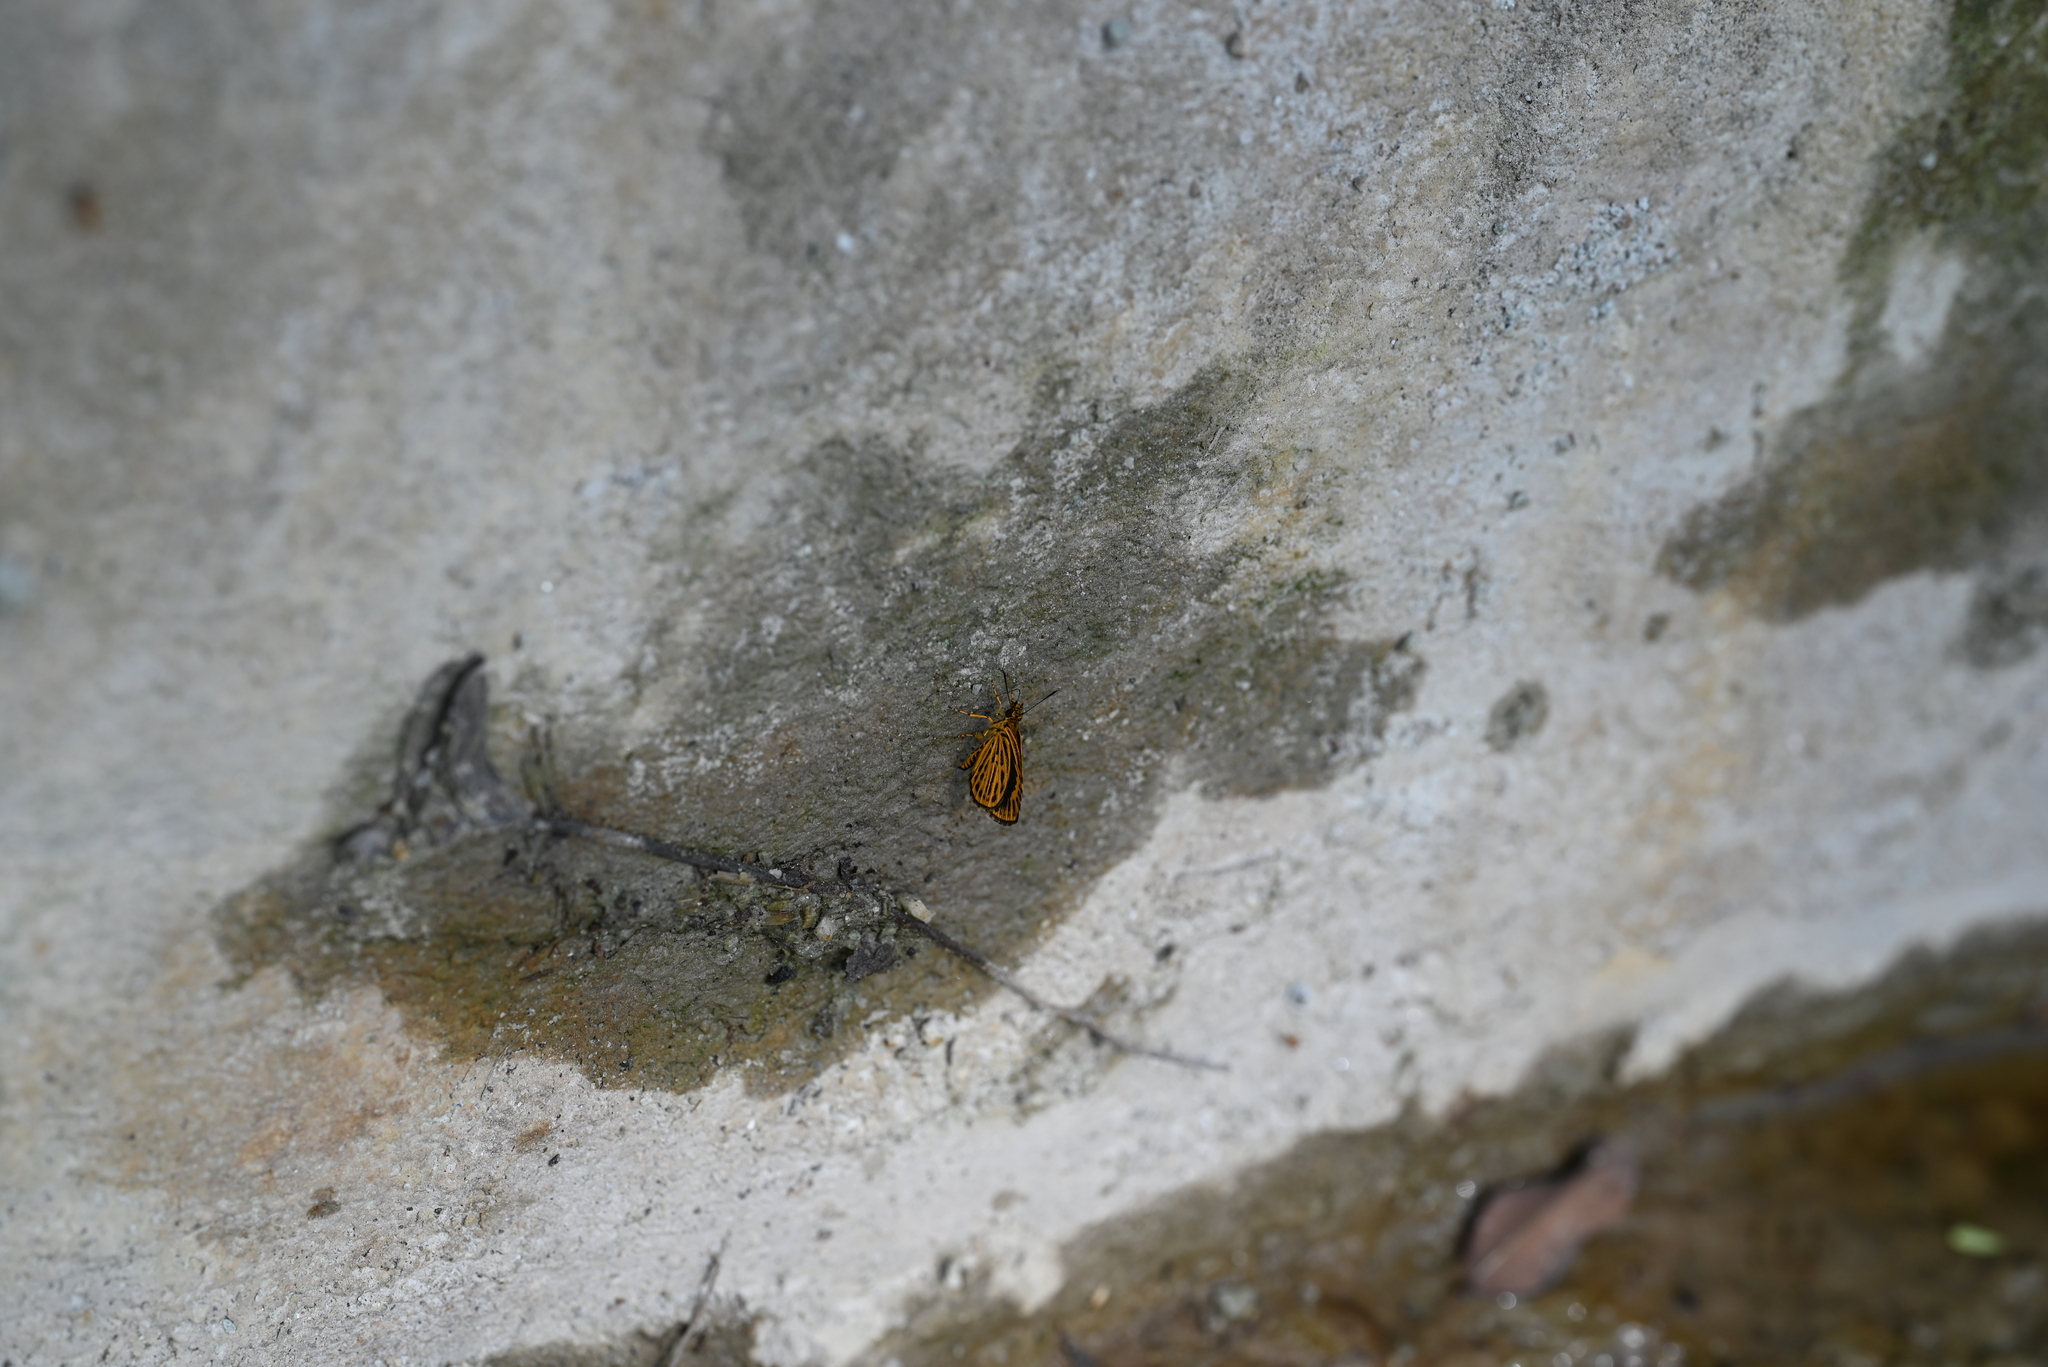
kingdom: Animalia
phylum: Arthropoda
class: Insecta
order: Lepidoptera
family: Hesperiidae
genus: Ampittia
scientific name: Ampittia subvittatus
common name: Tiger hopper
